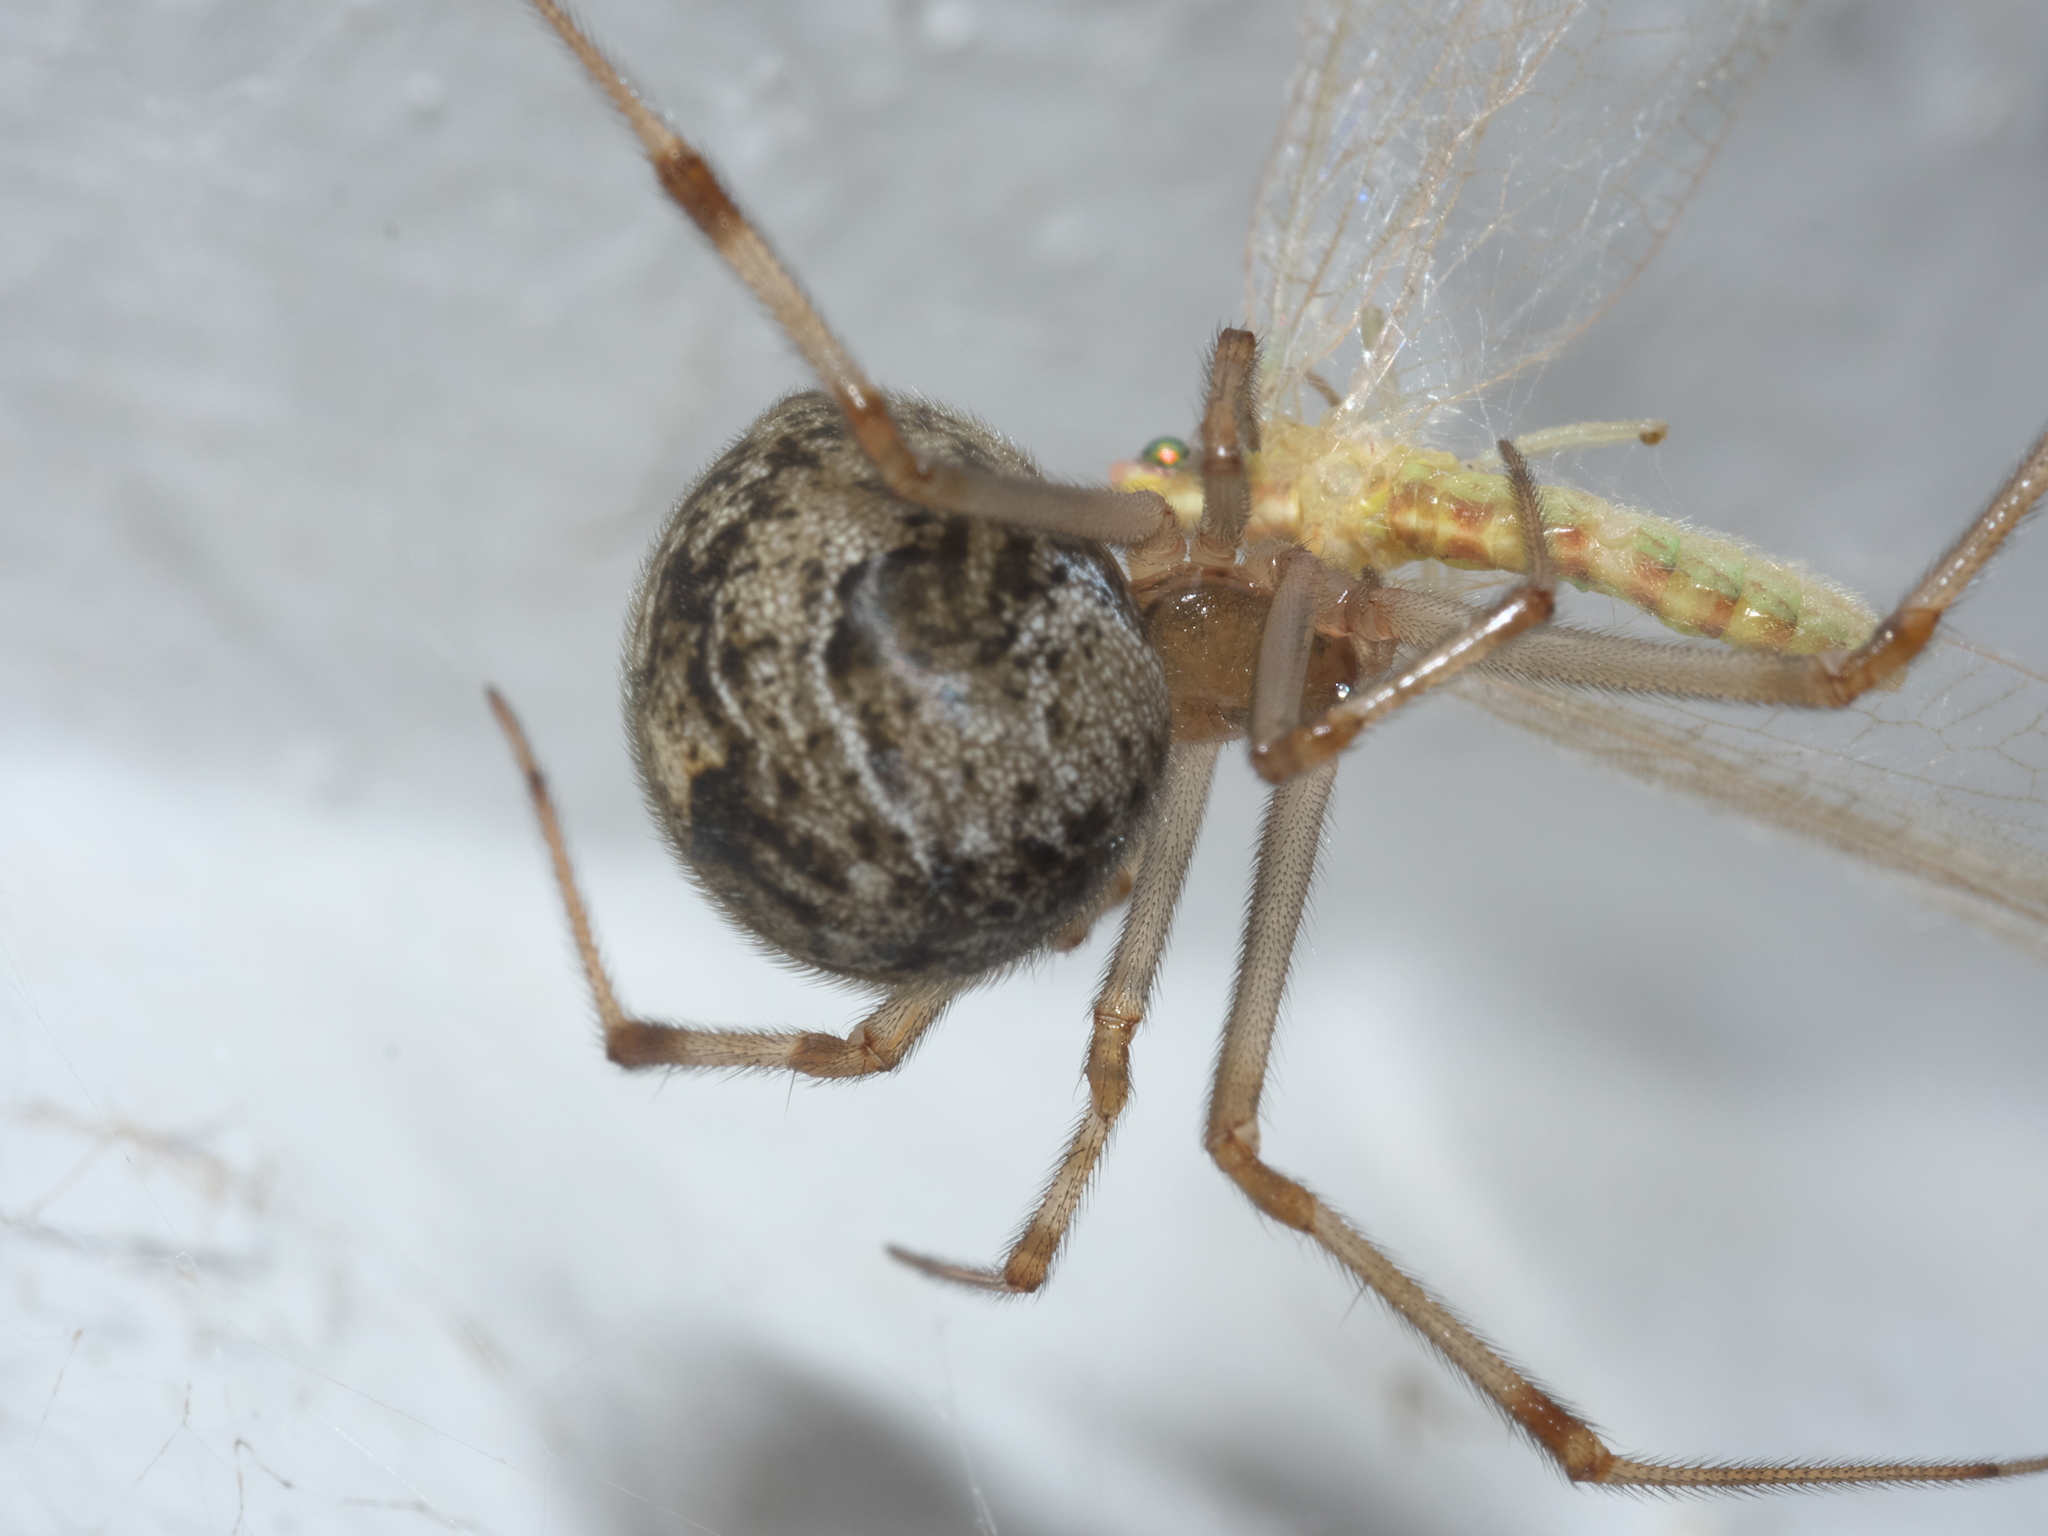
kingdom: Animalia
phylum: Arthropoda
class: Arachnida
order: Araneae
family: Theridiidae
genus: Parasteatoda
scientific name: Parasteatoda tepidariorum
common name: Common house spider
